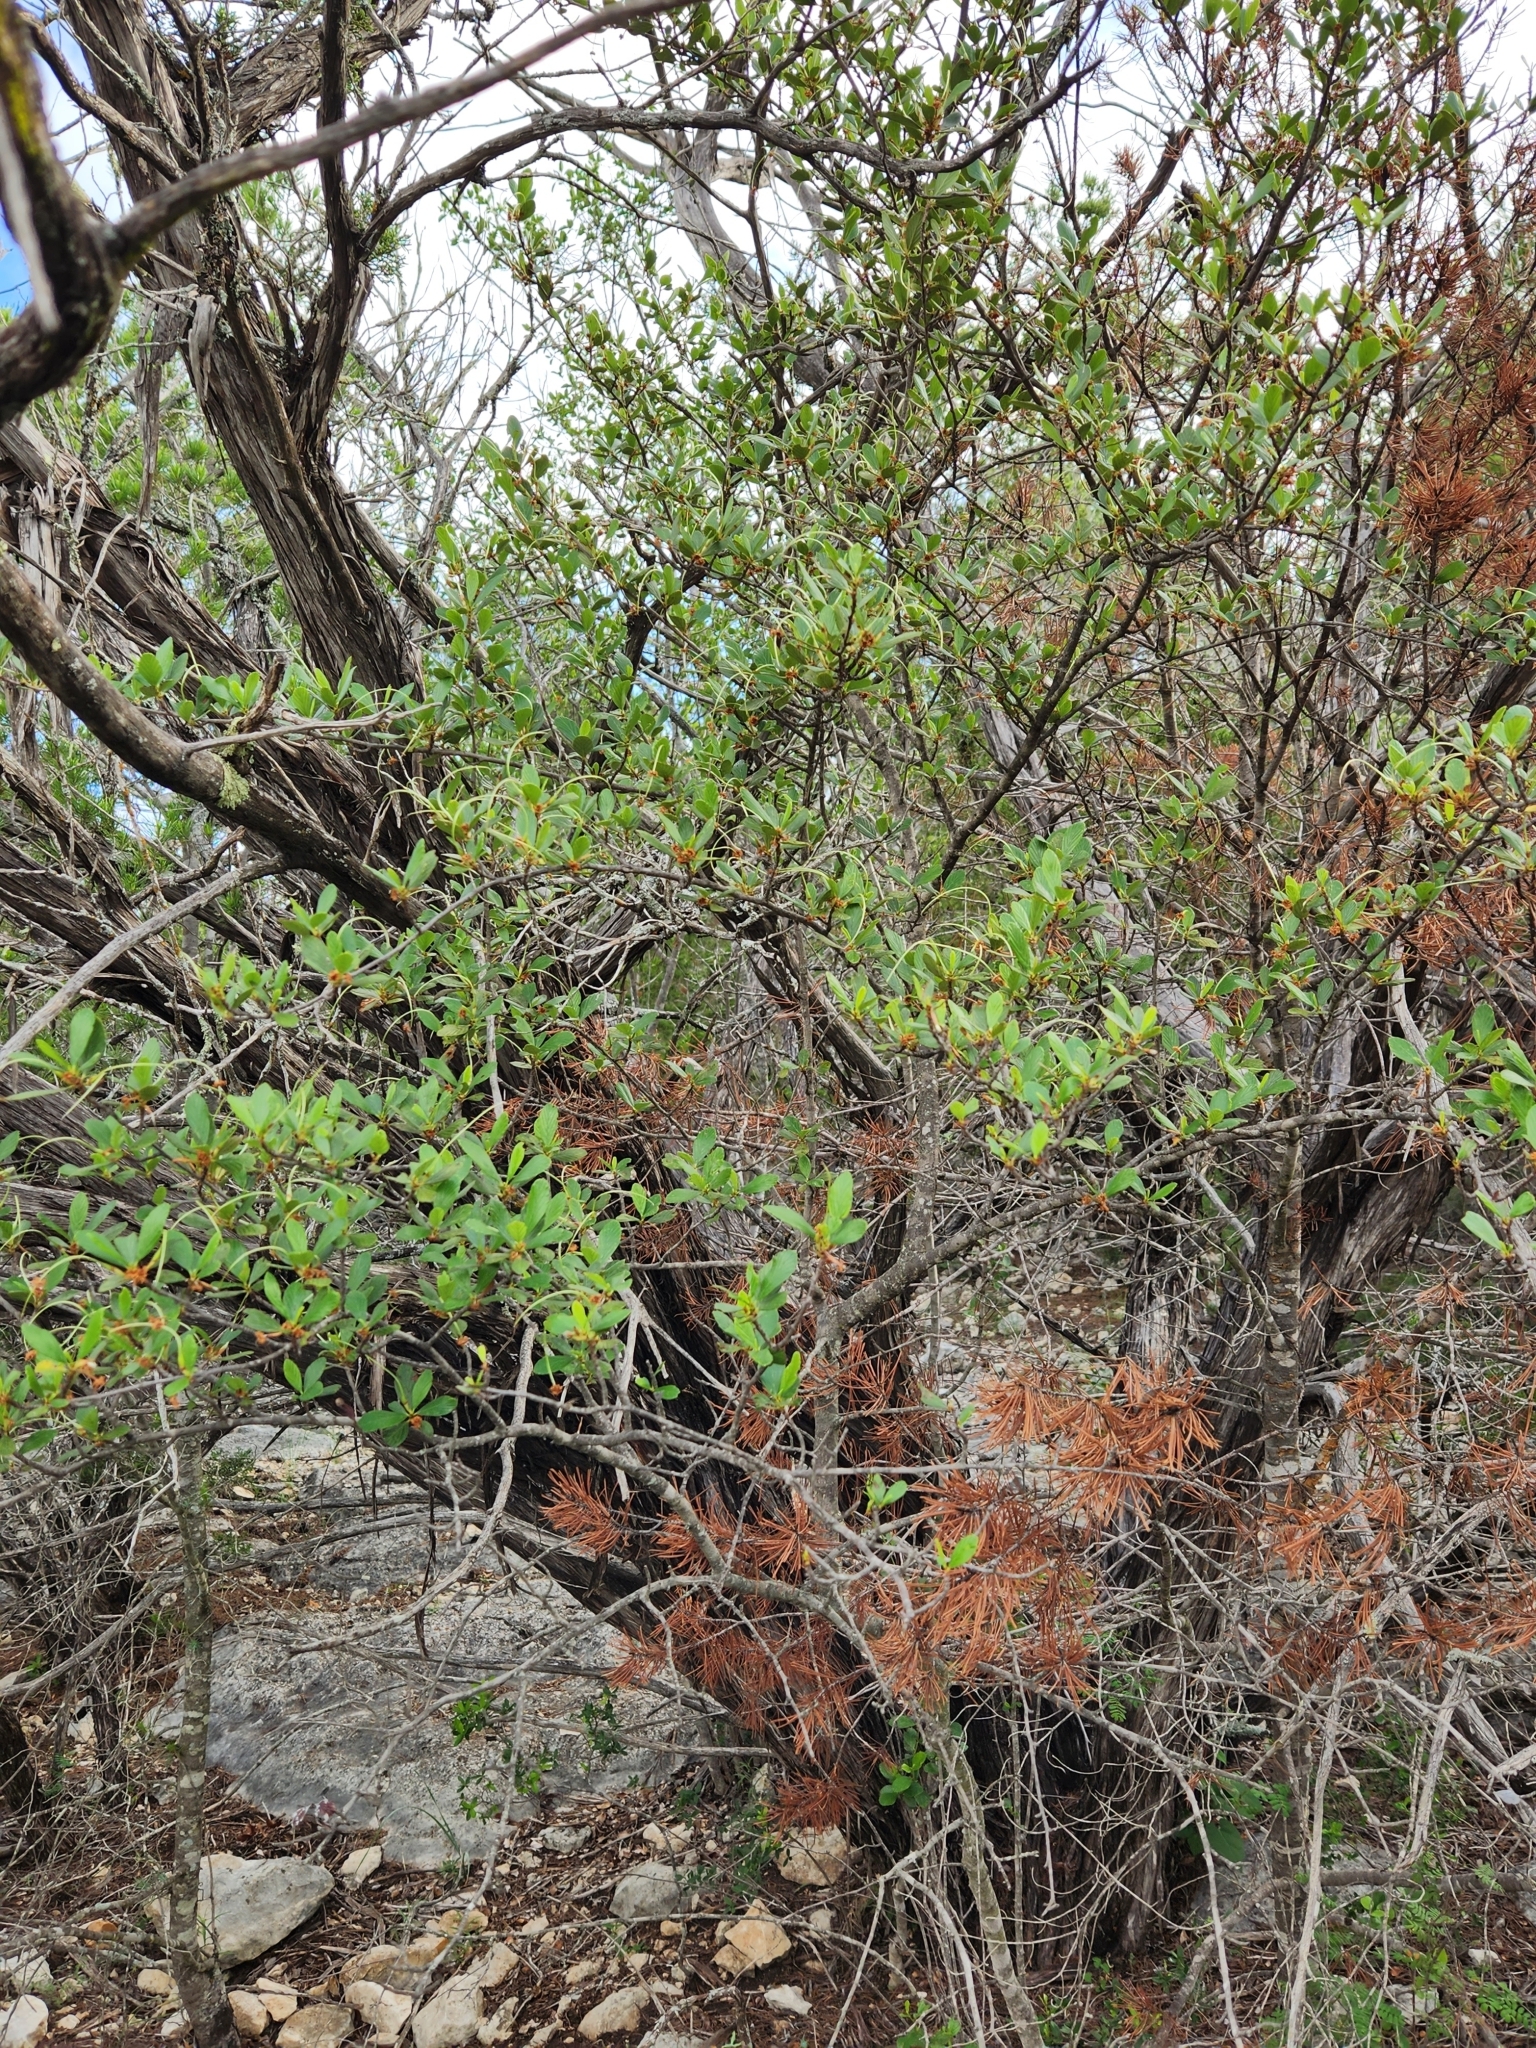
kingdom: Plantae
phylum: Tracheophyta
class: Magnoliopsida
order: Rosales
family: Rosaceae
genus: Cercocarpus
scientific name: Cercocarpus montanus
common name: Alder-leaf cercocarpus
